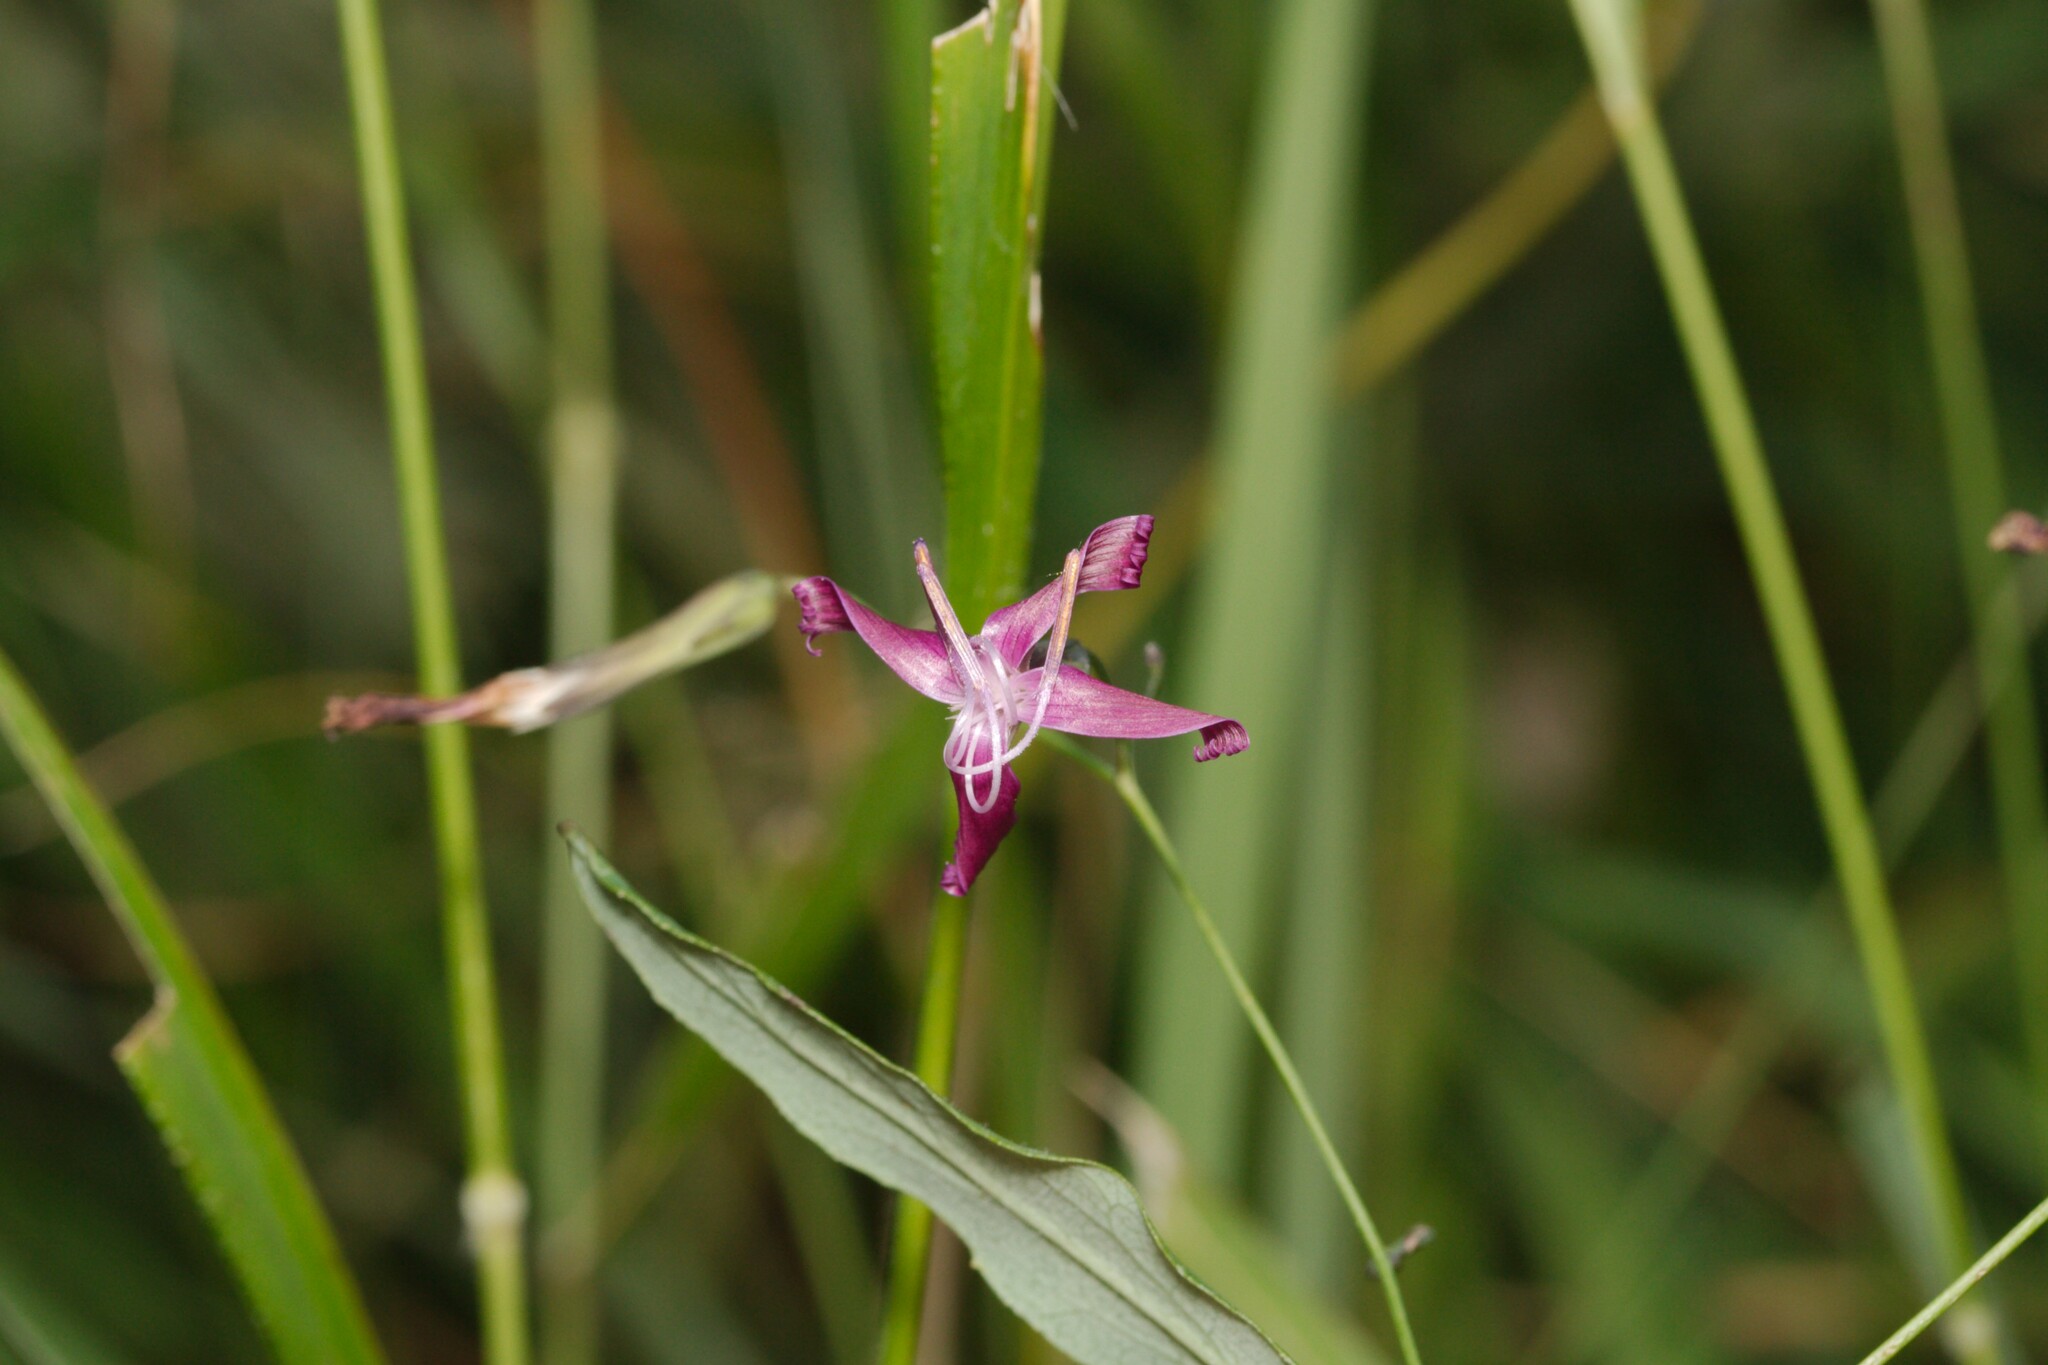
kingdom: Plantae
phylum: Tracheophyta
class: Magnoliopsida
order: Asterales
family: Asteraceae
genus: Prenanthes
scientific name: Prenanthes purpurea
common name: Purple lettuce
